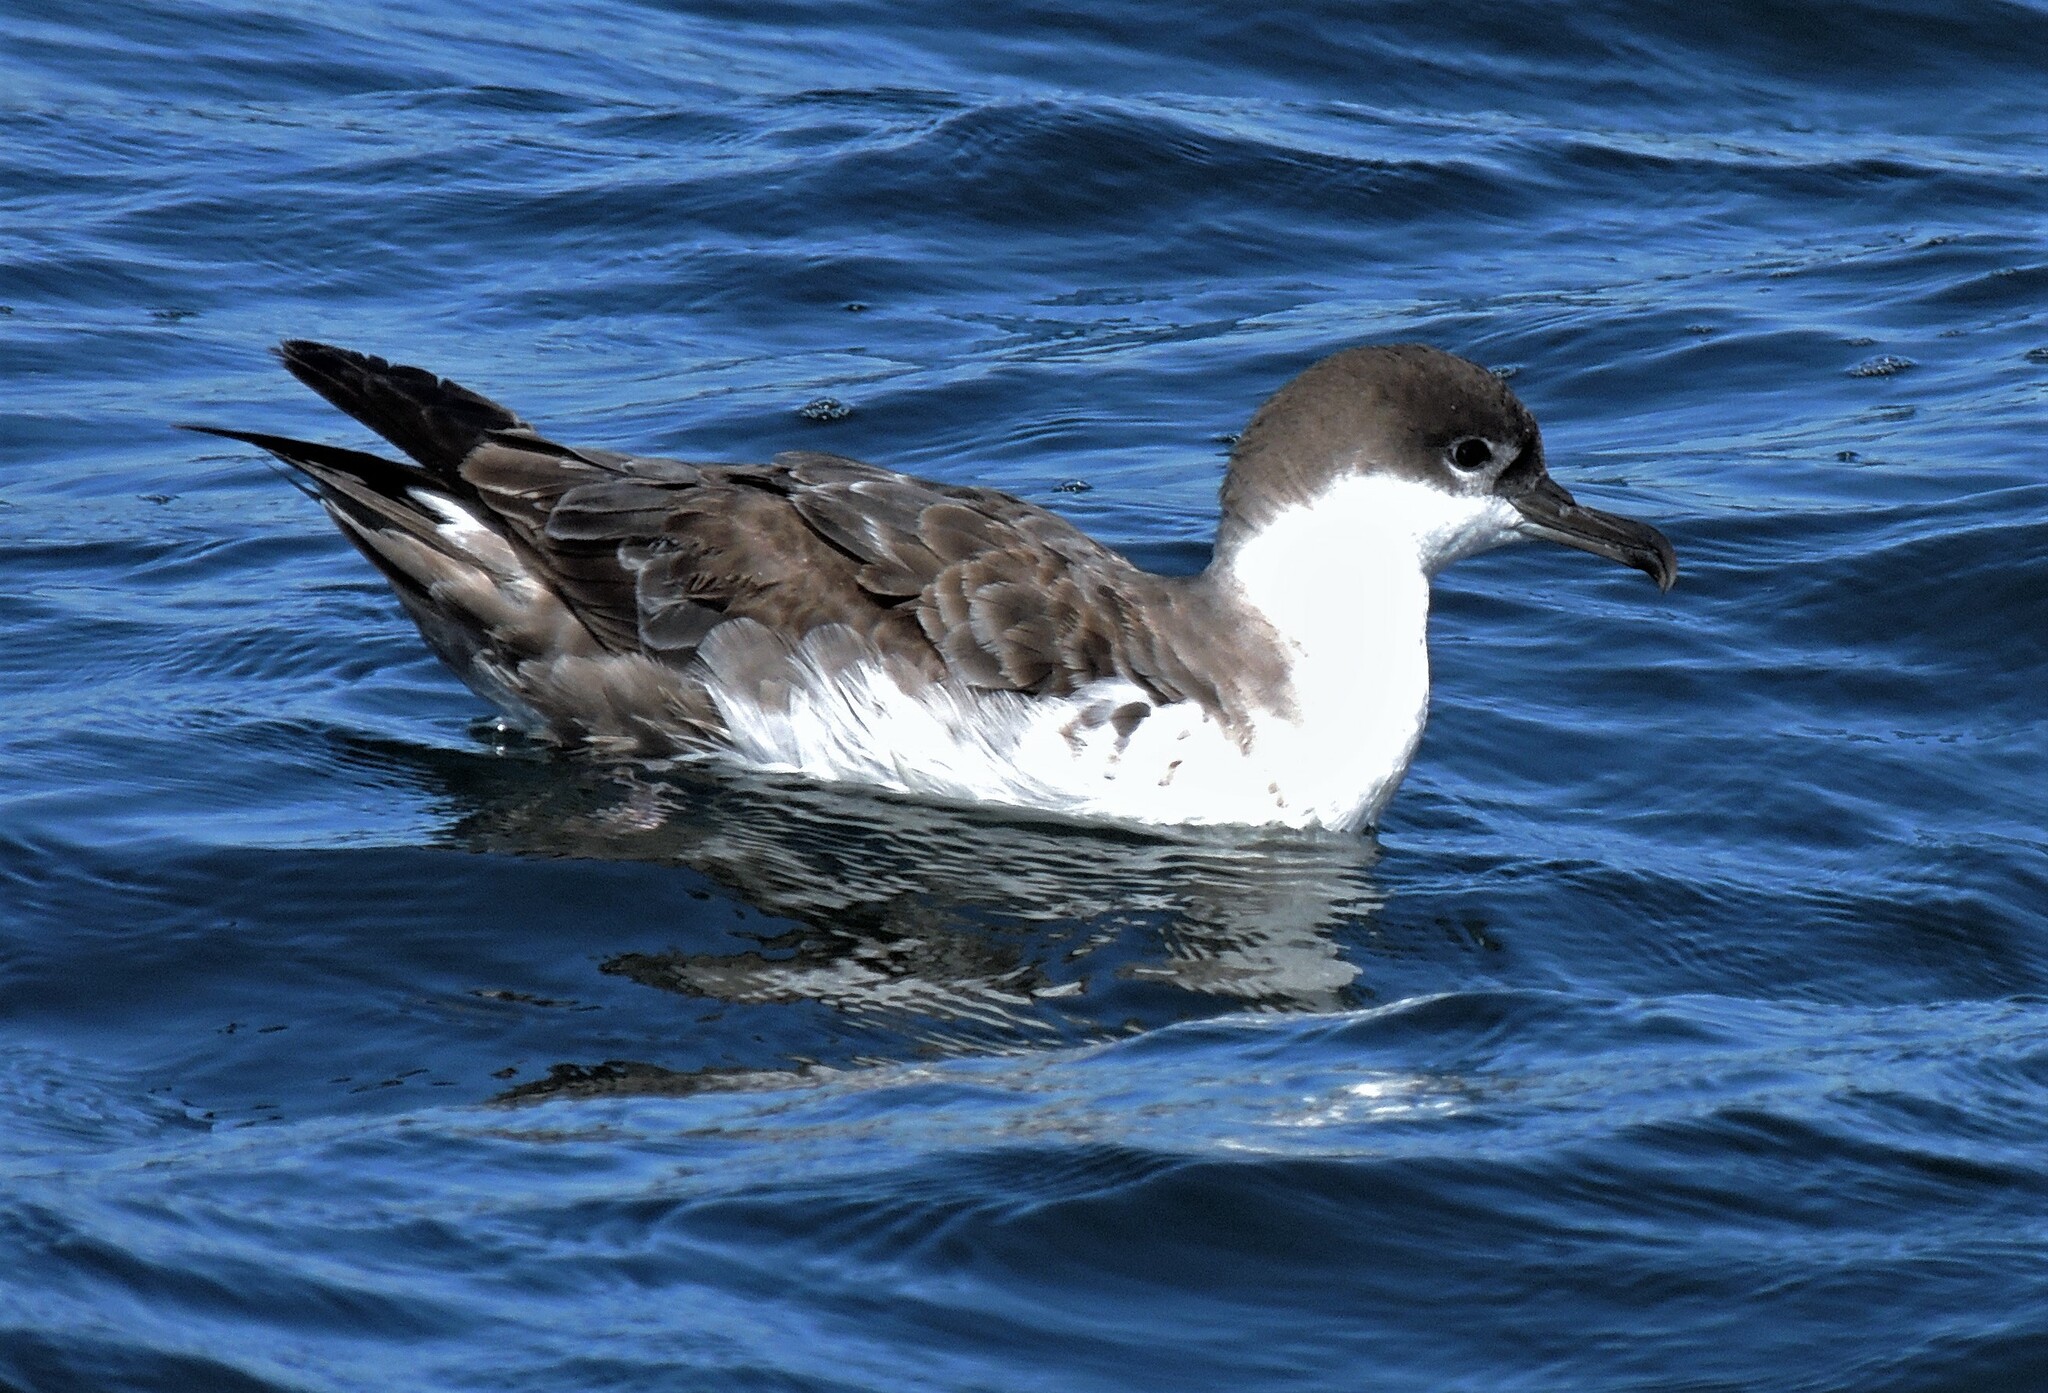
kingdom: Animalia
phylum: Chordata
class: Aves
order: Procellariiformes
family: Procellariidae
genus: Puffinus
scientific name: Puffinus gravis
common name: Great shearwater
